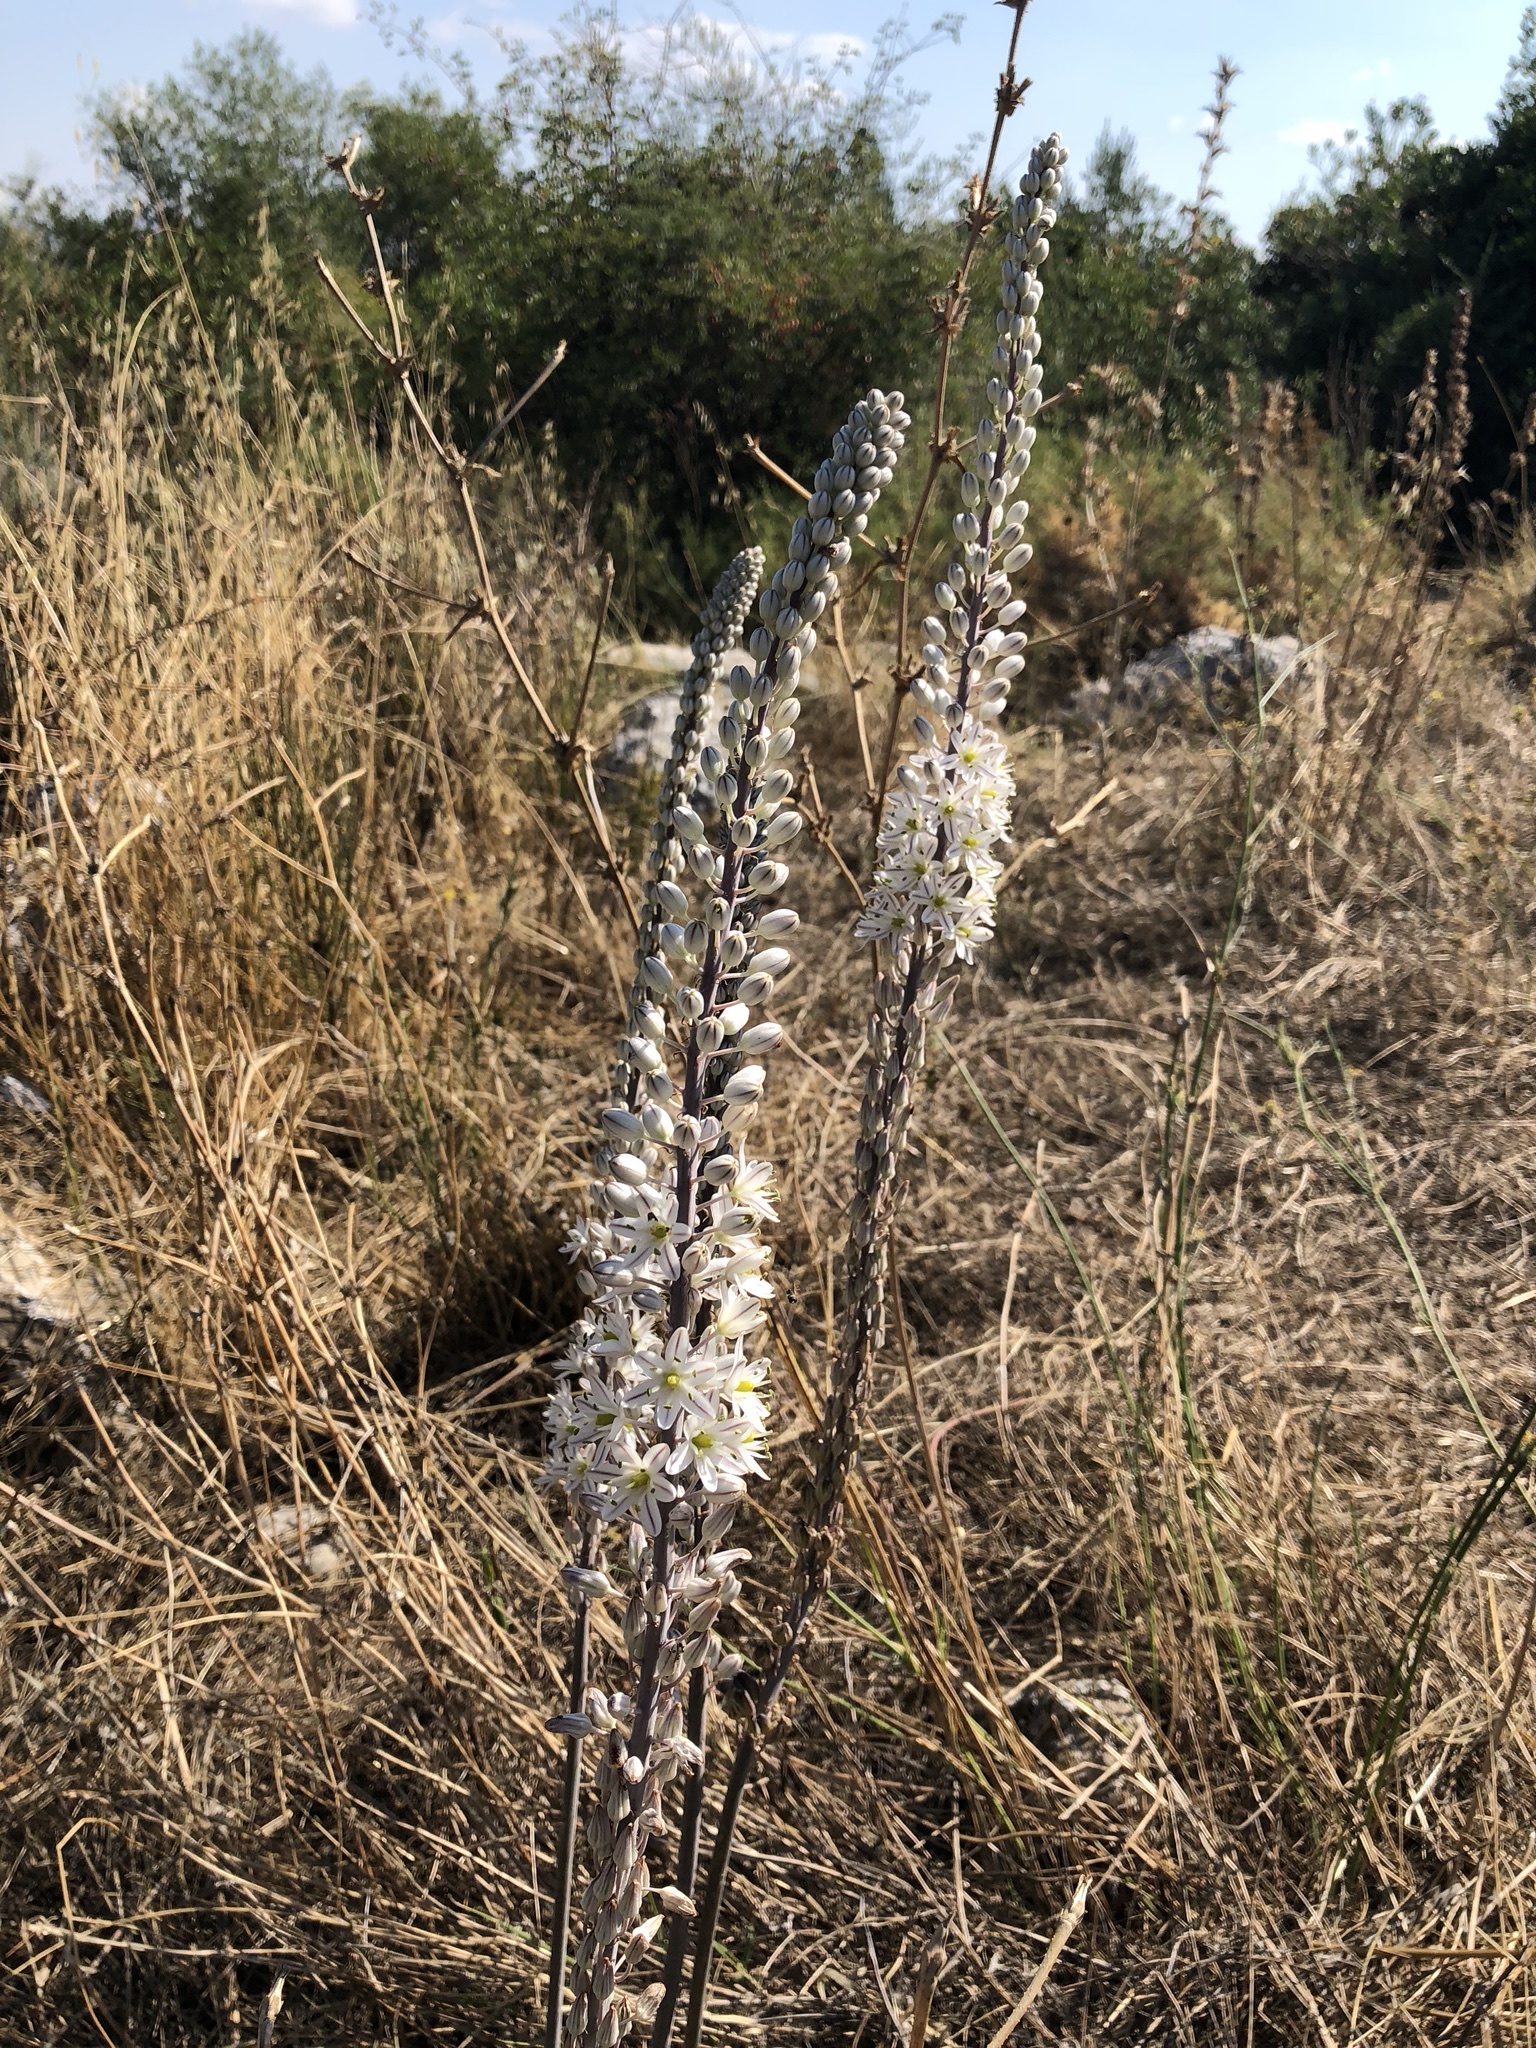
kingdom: Plantae
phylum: Tracheophyta
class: Liliopsida
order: Asparagales
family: Asparagaceae
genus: Drimia
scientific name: Drimia maritima
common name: Maritime squill
